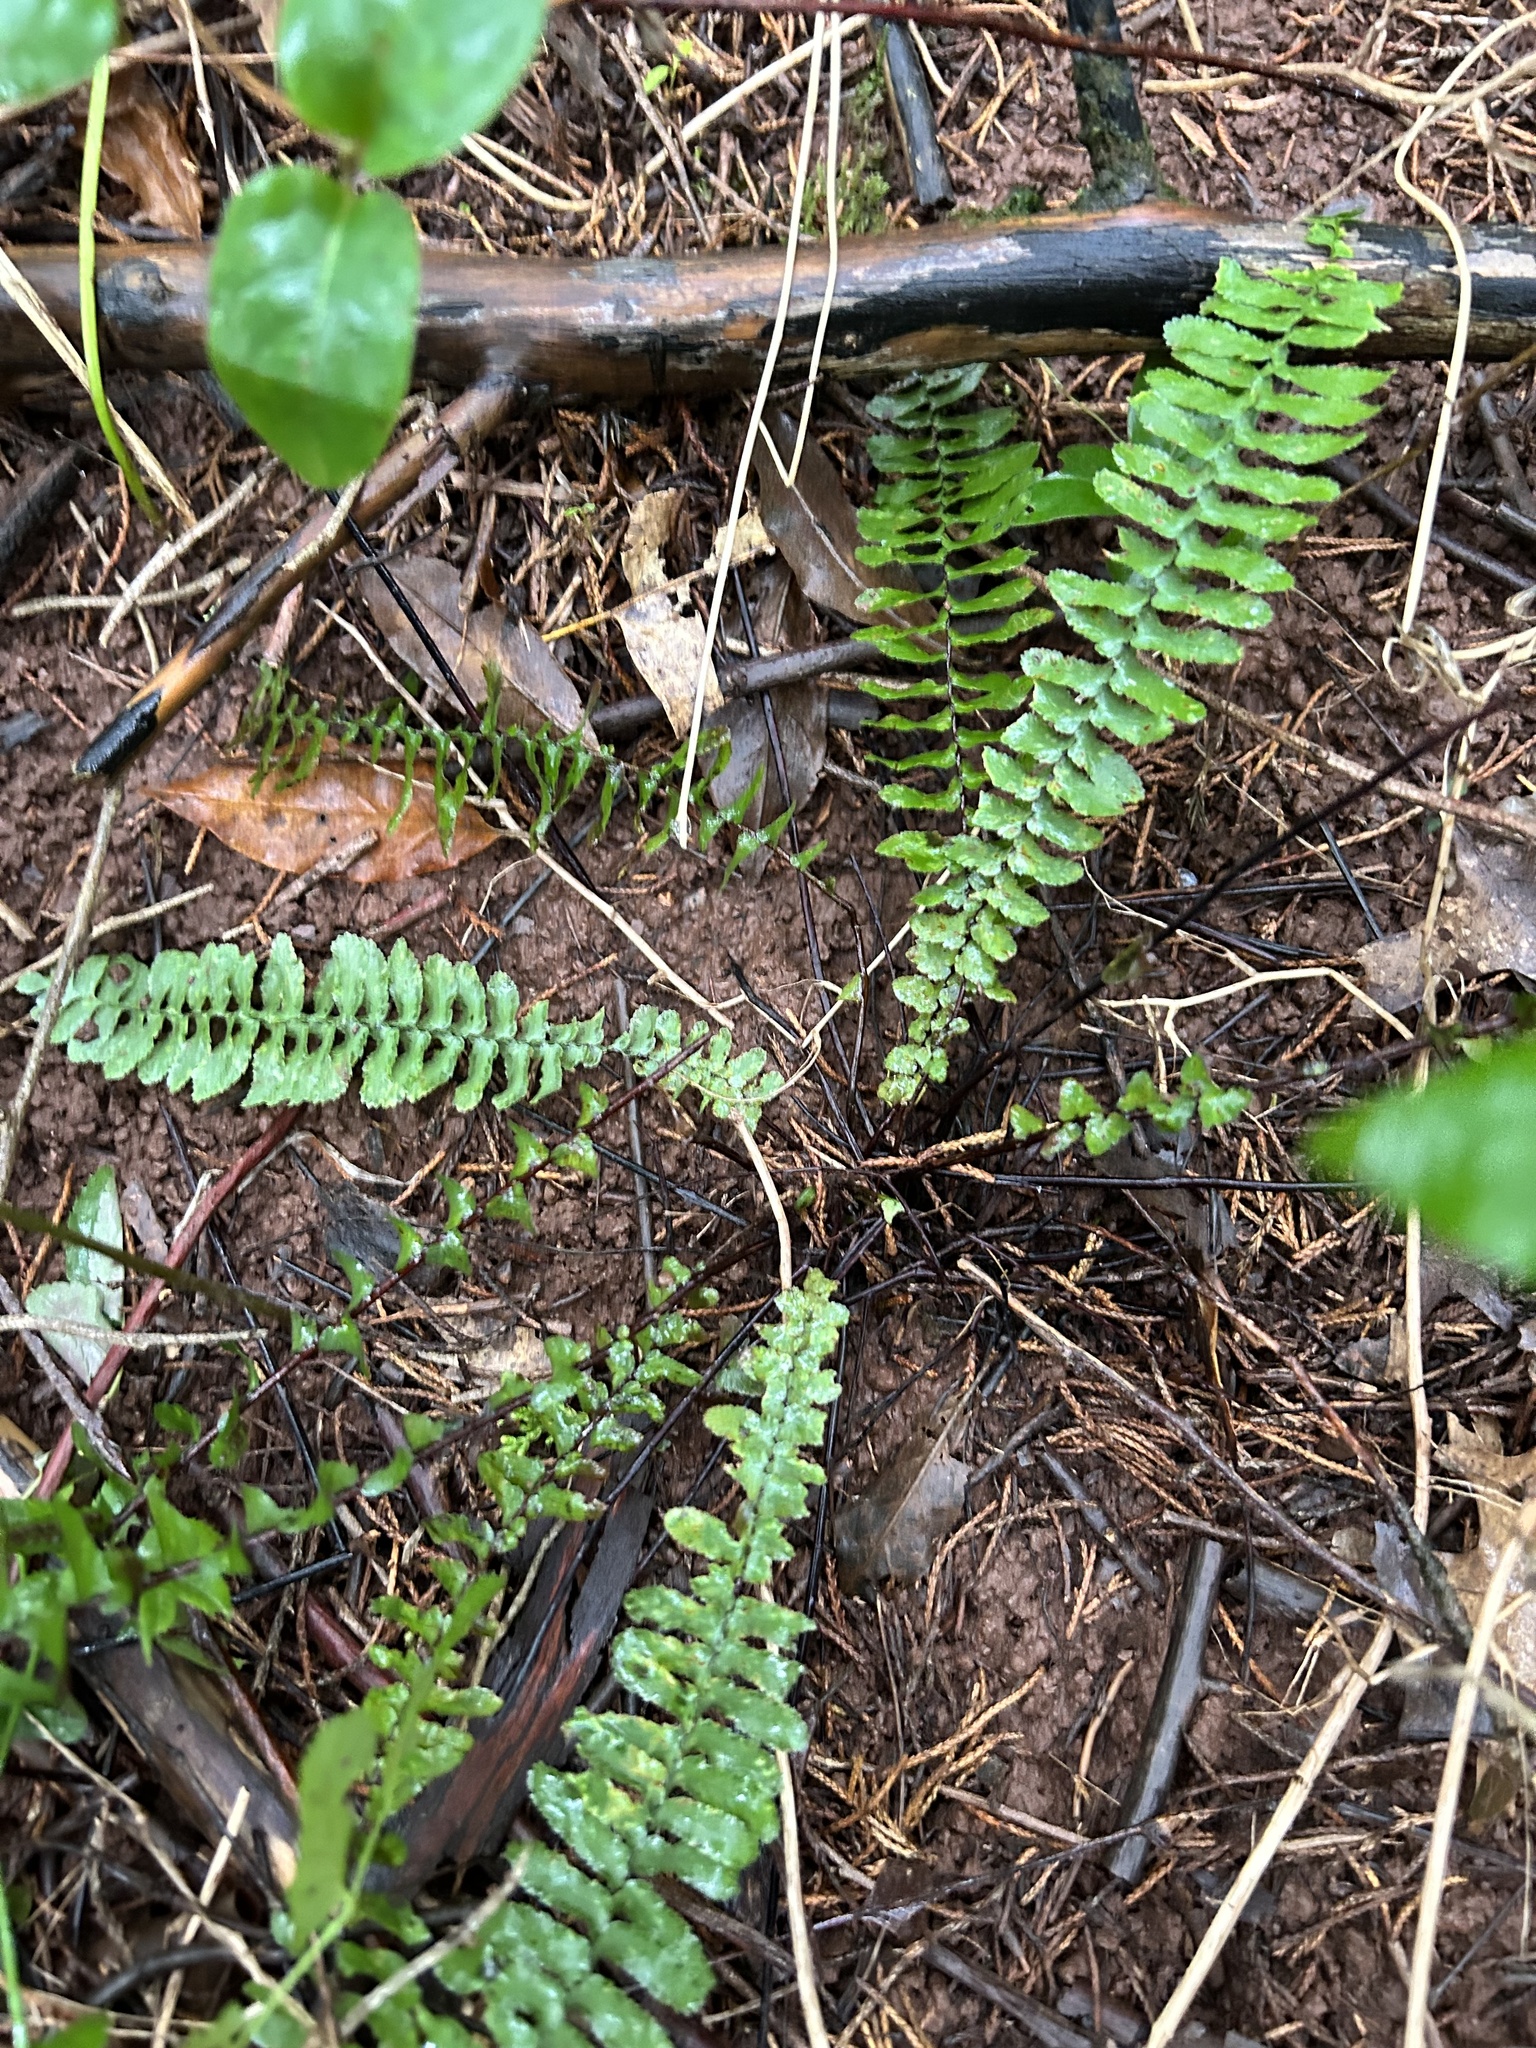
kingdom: Plantae
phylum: Tracheophyta
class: Polypodiopsida
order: Polypodiales
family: Aspleniaceae
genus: Asplenium
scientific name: Asplenium platyneuron
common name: Ebony spleenwort
